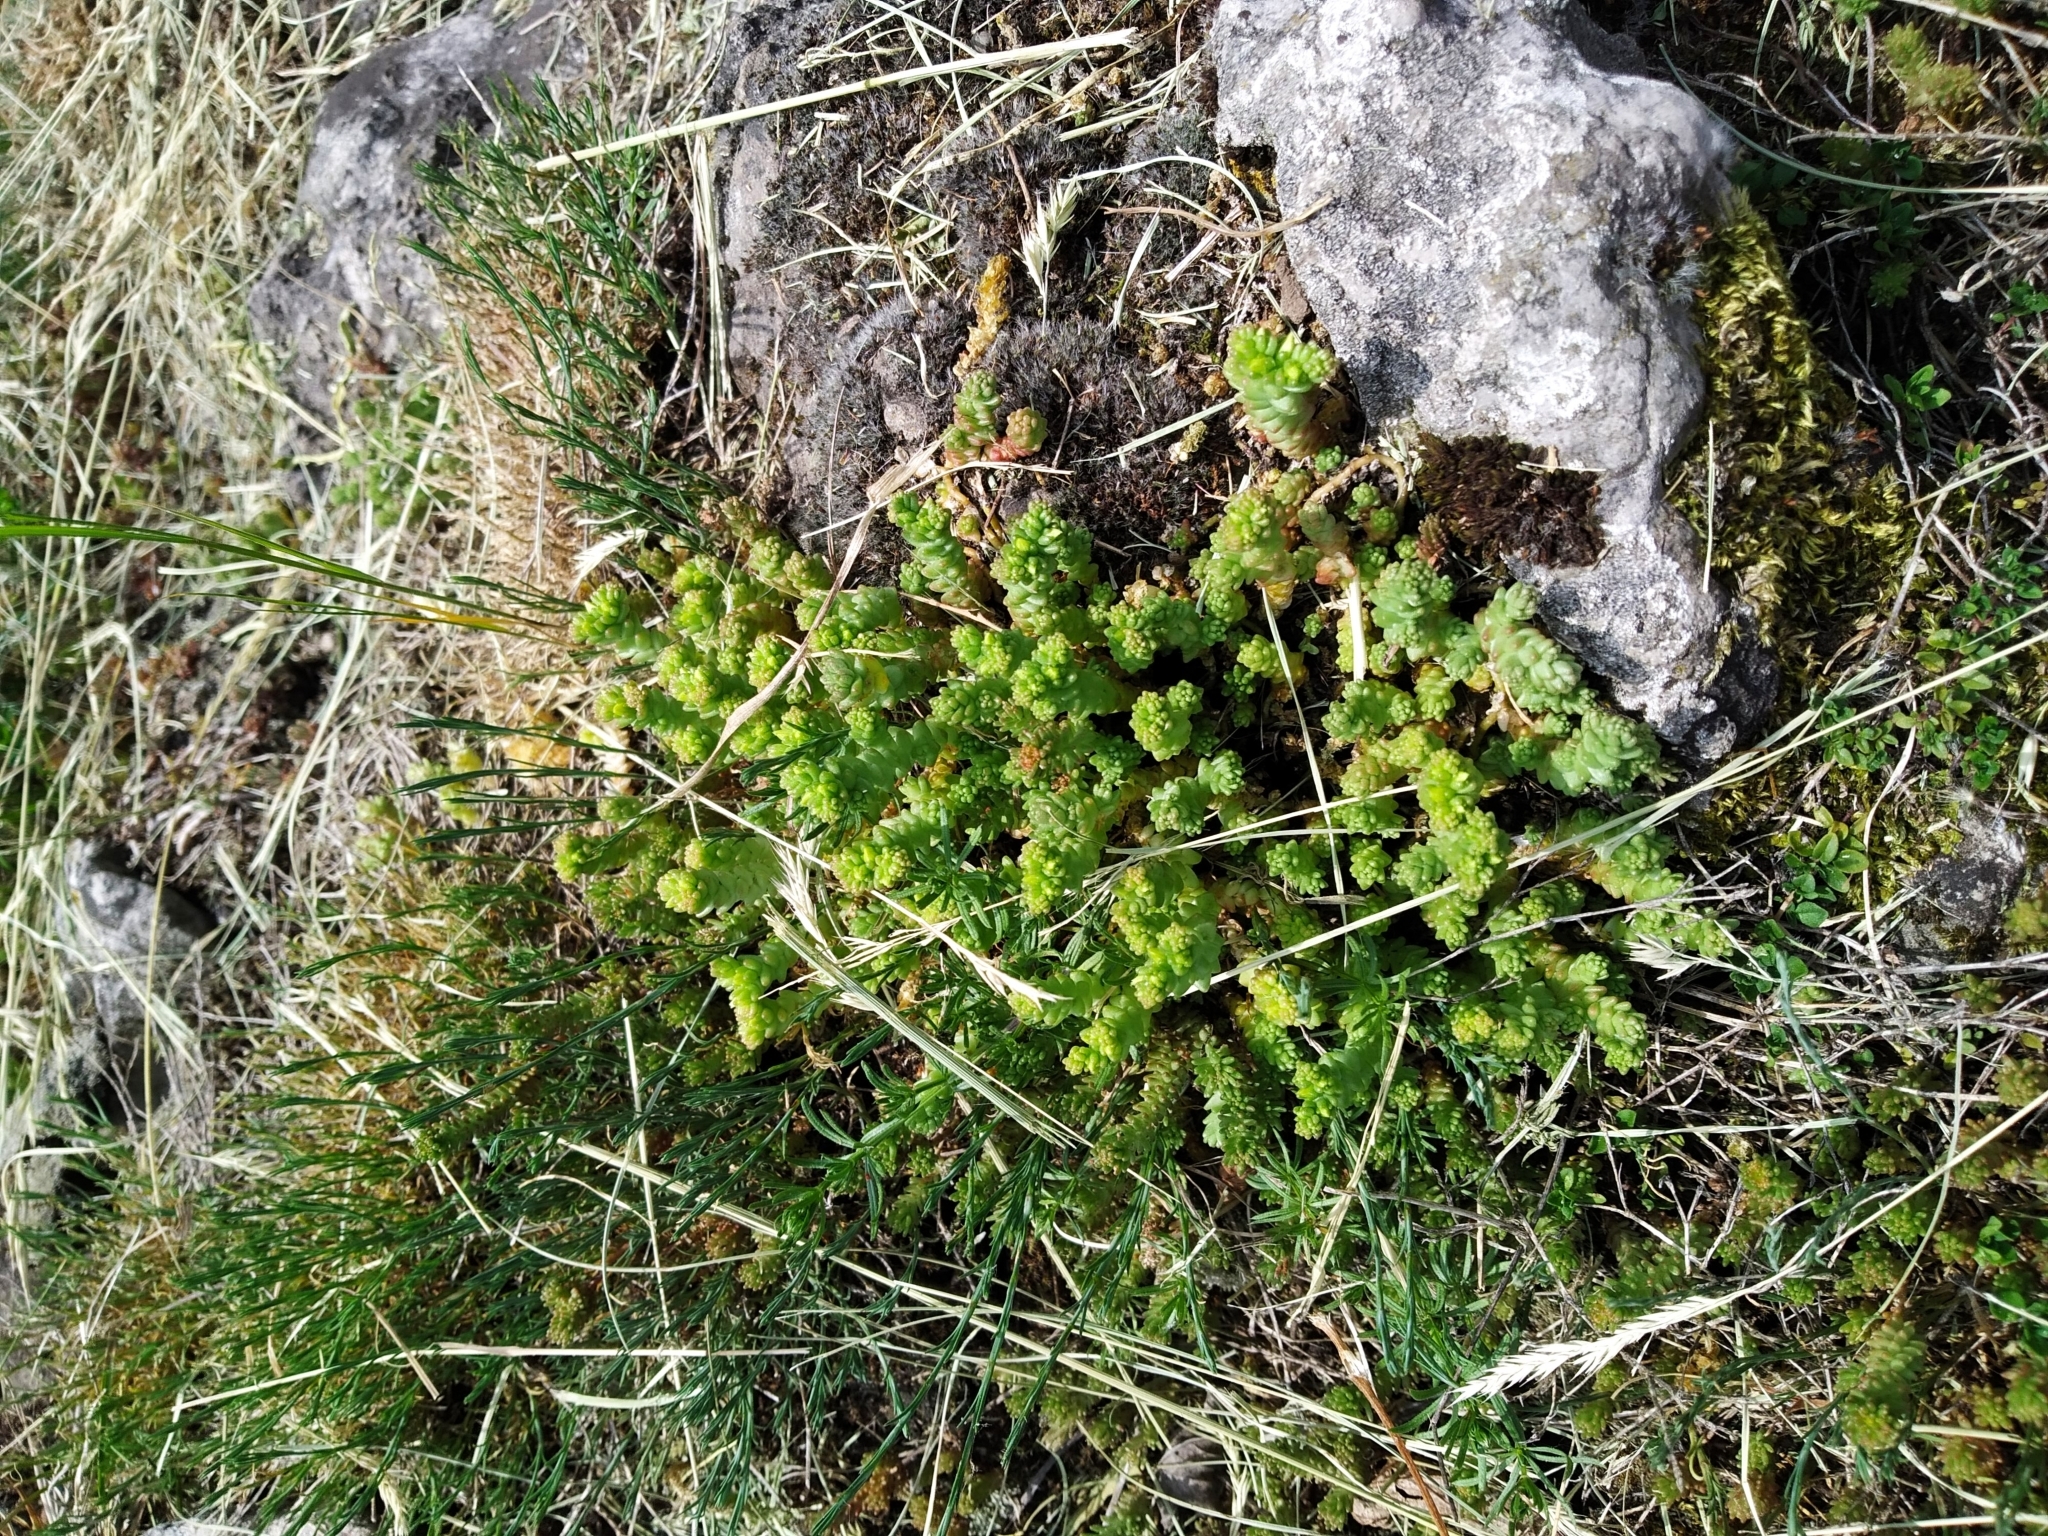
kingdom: Plantae
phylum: Tracheophyta
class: Magnoliopsida
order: Saxifragales
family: Crassulaceae
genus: Sedum
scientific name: Sedum acre
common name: Biting stonecrop
